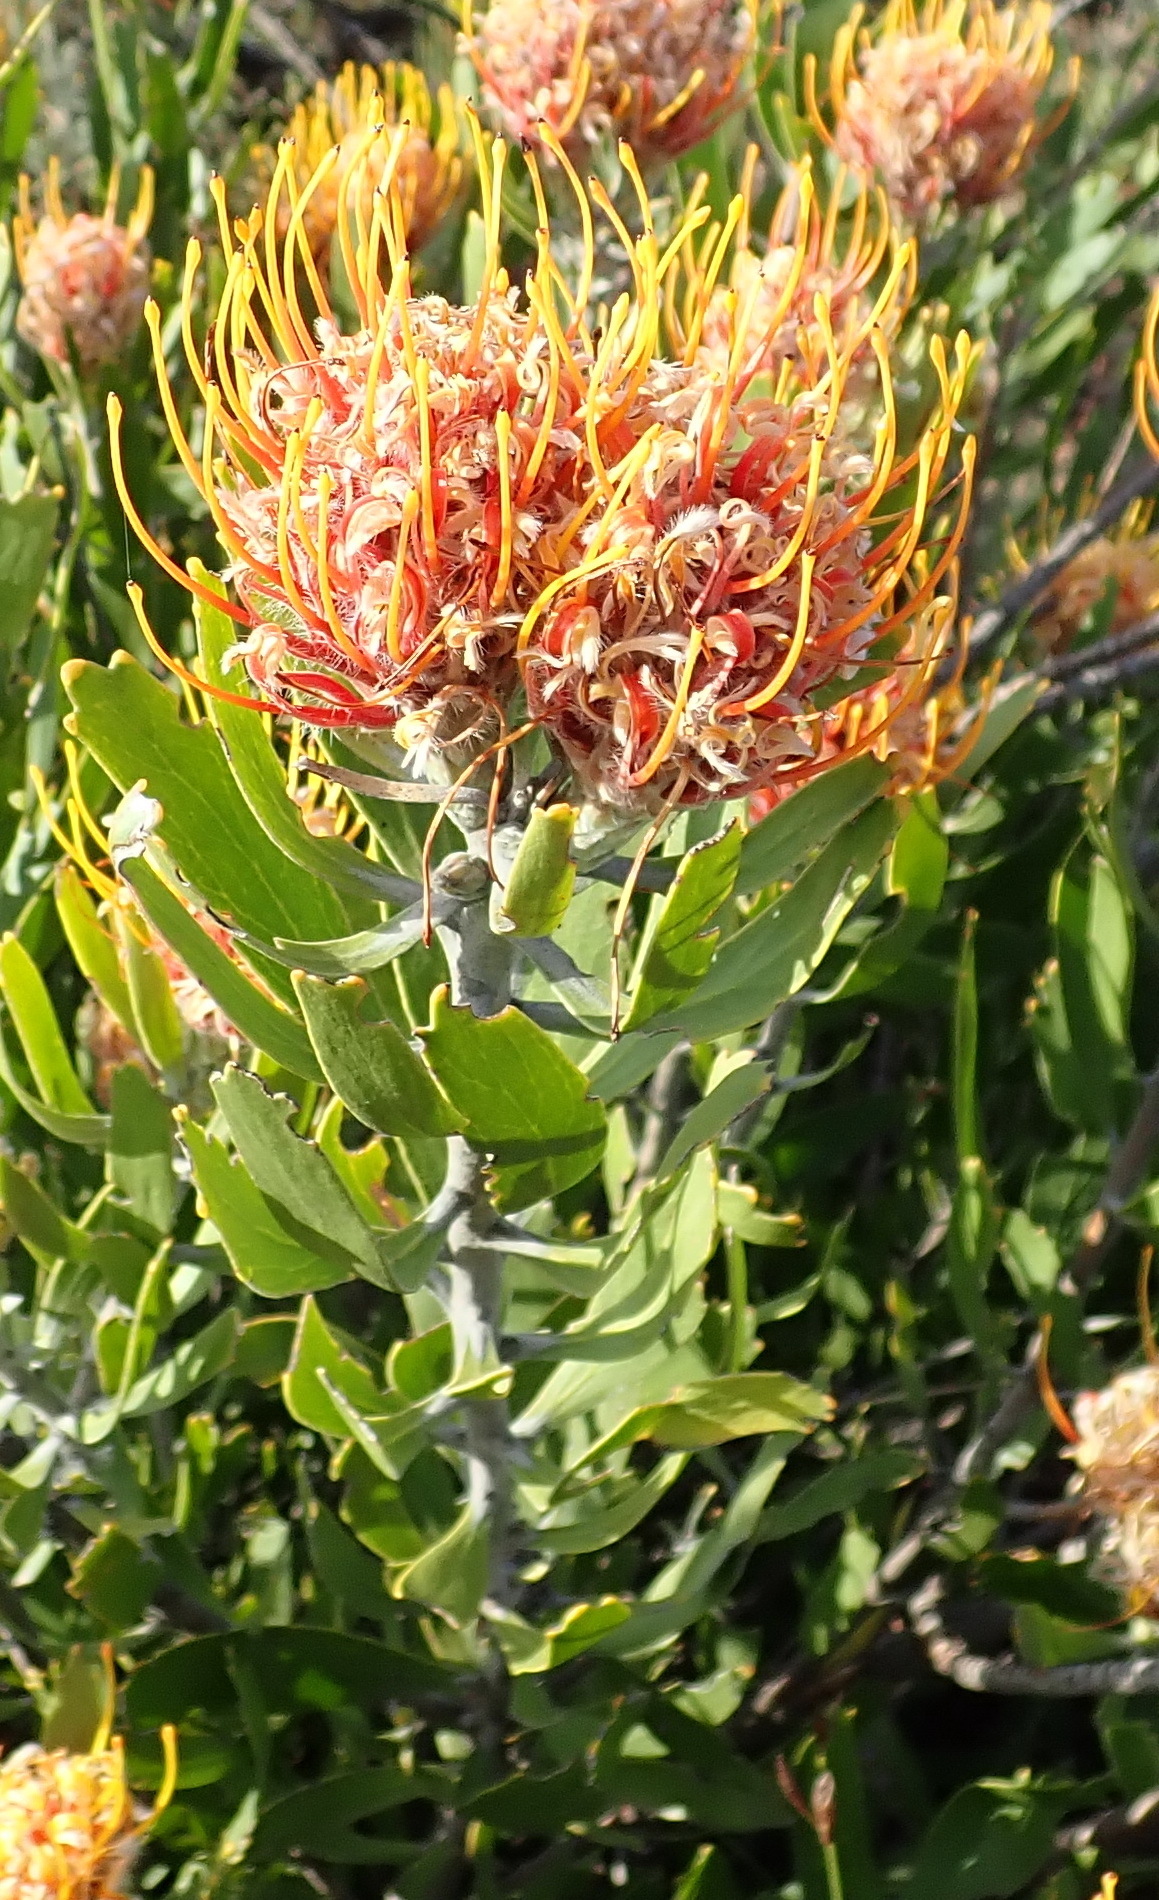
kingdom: Plantae
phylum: Tracheophyta
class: Magnoliopsida
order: Proteales
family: Proteaceae
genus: Leucospermum
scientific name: Leucospermum cuneiforme
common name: Common pincushion
